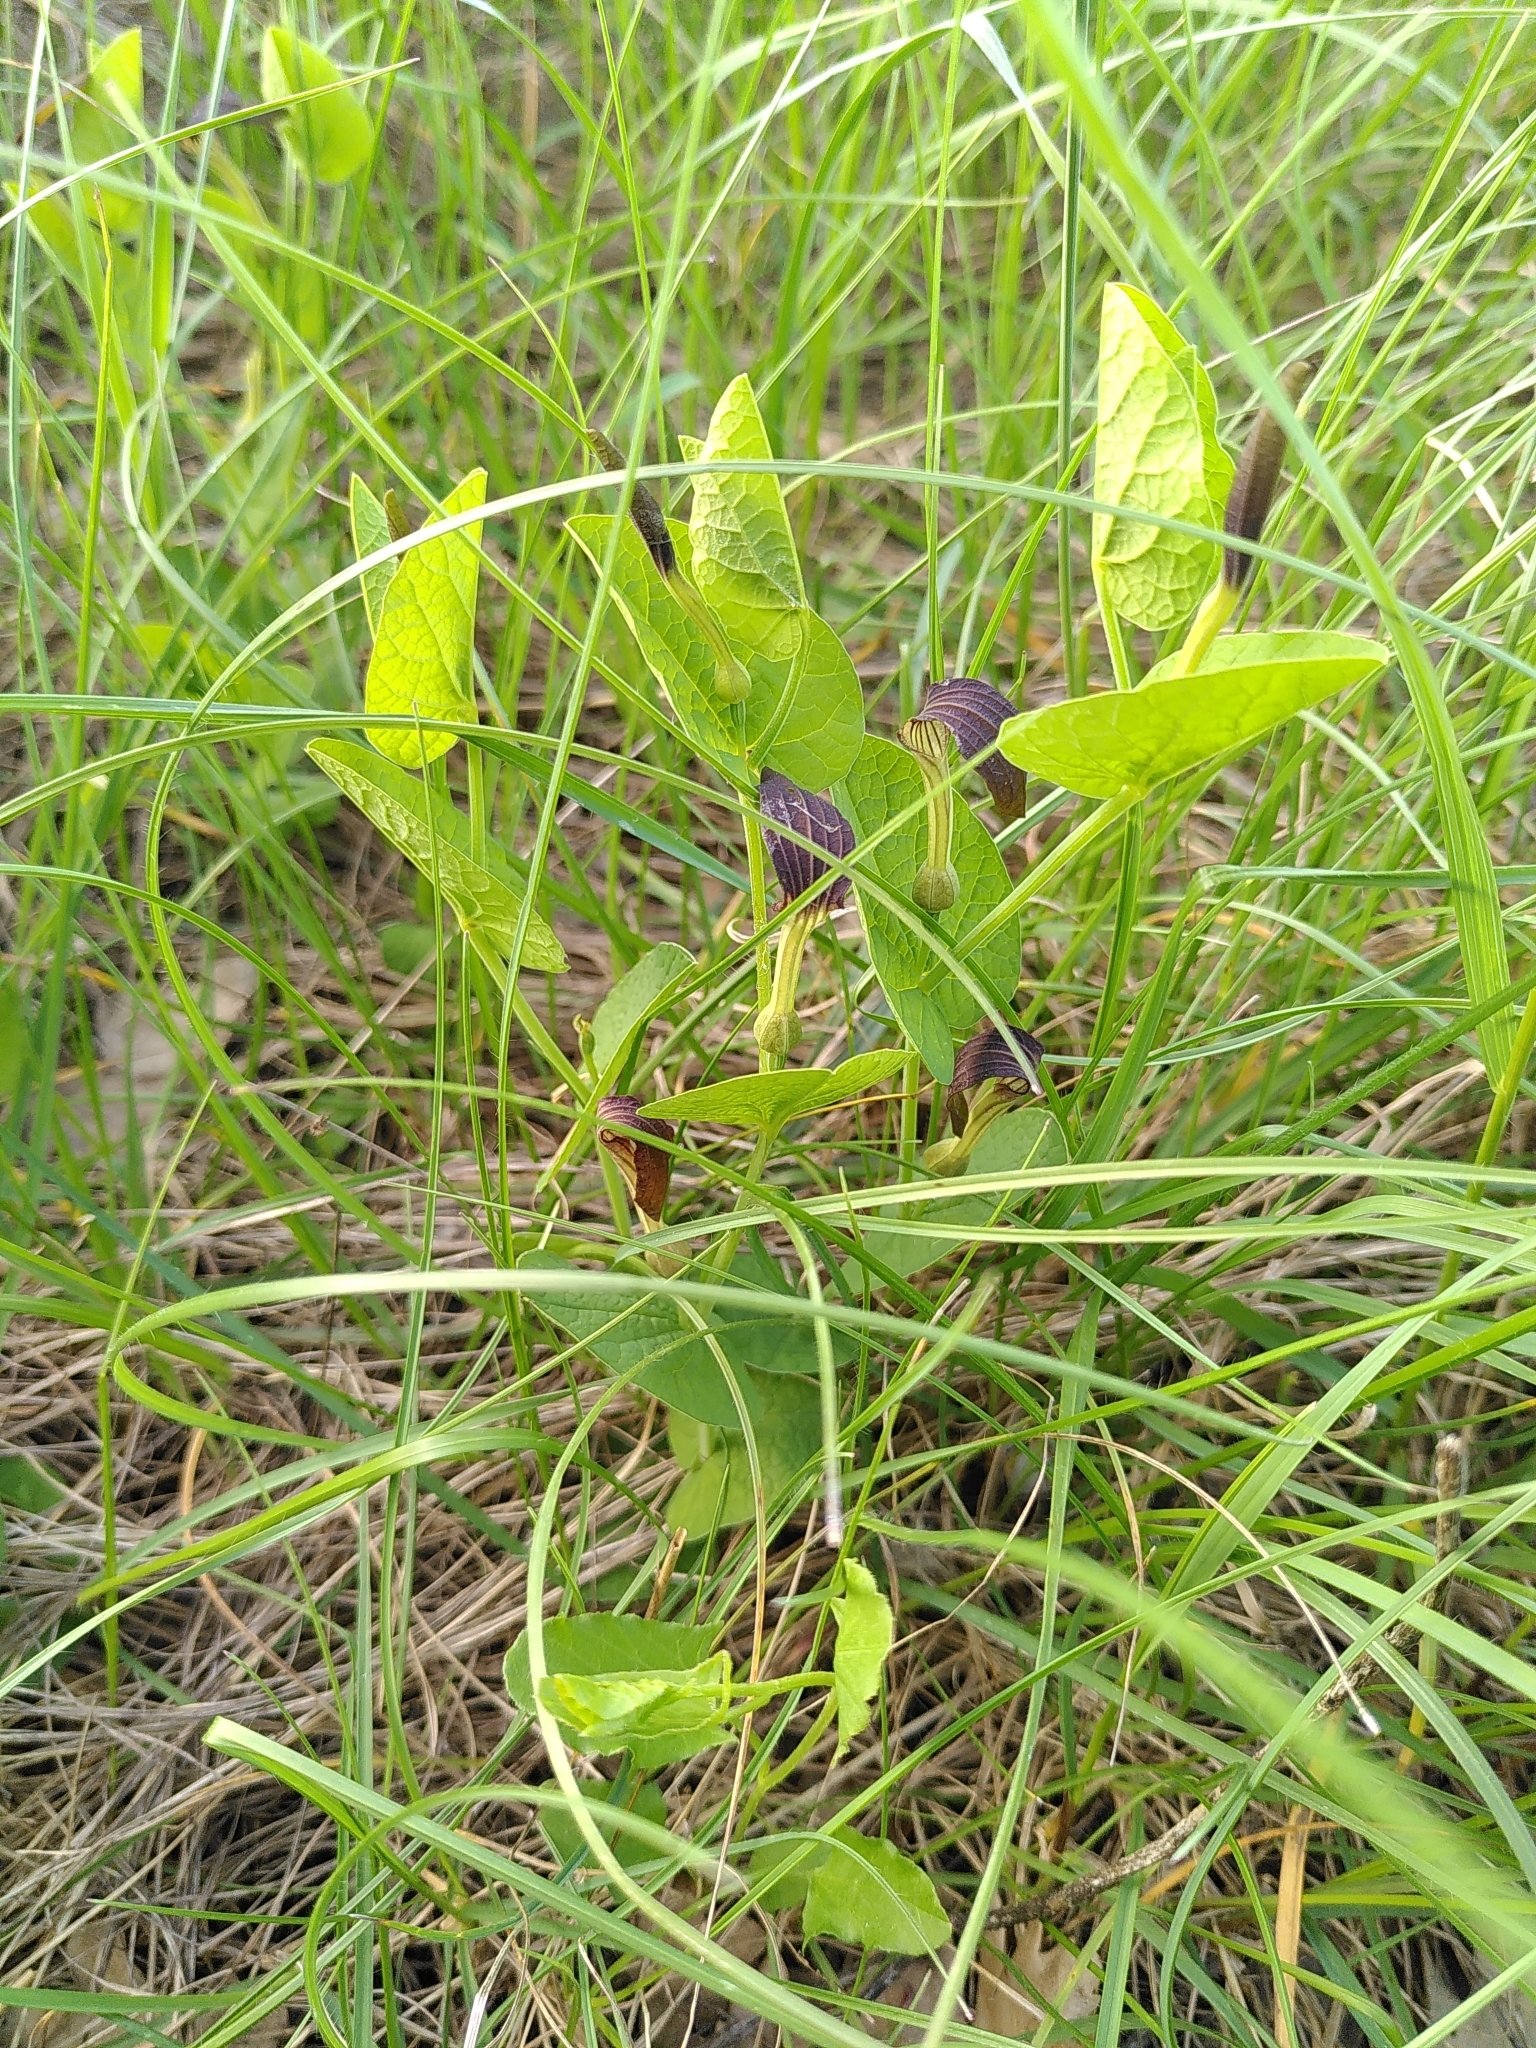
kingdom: Plantae
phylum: Tracheophyta
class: Magnoliopsida
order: Piperales
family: Aristolochiaceae
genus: Aristolochia
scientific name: Aristolochia rotunda
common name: Smearwort
